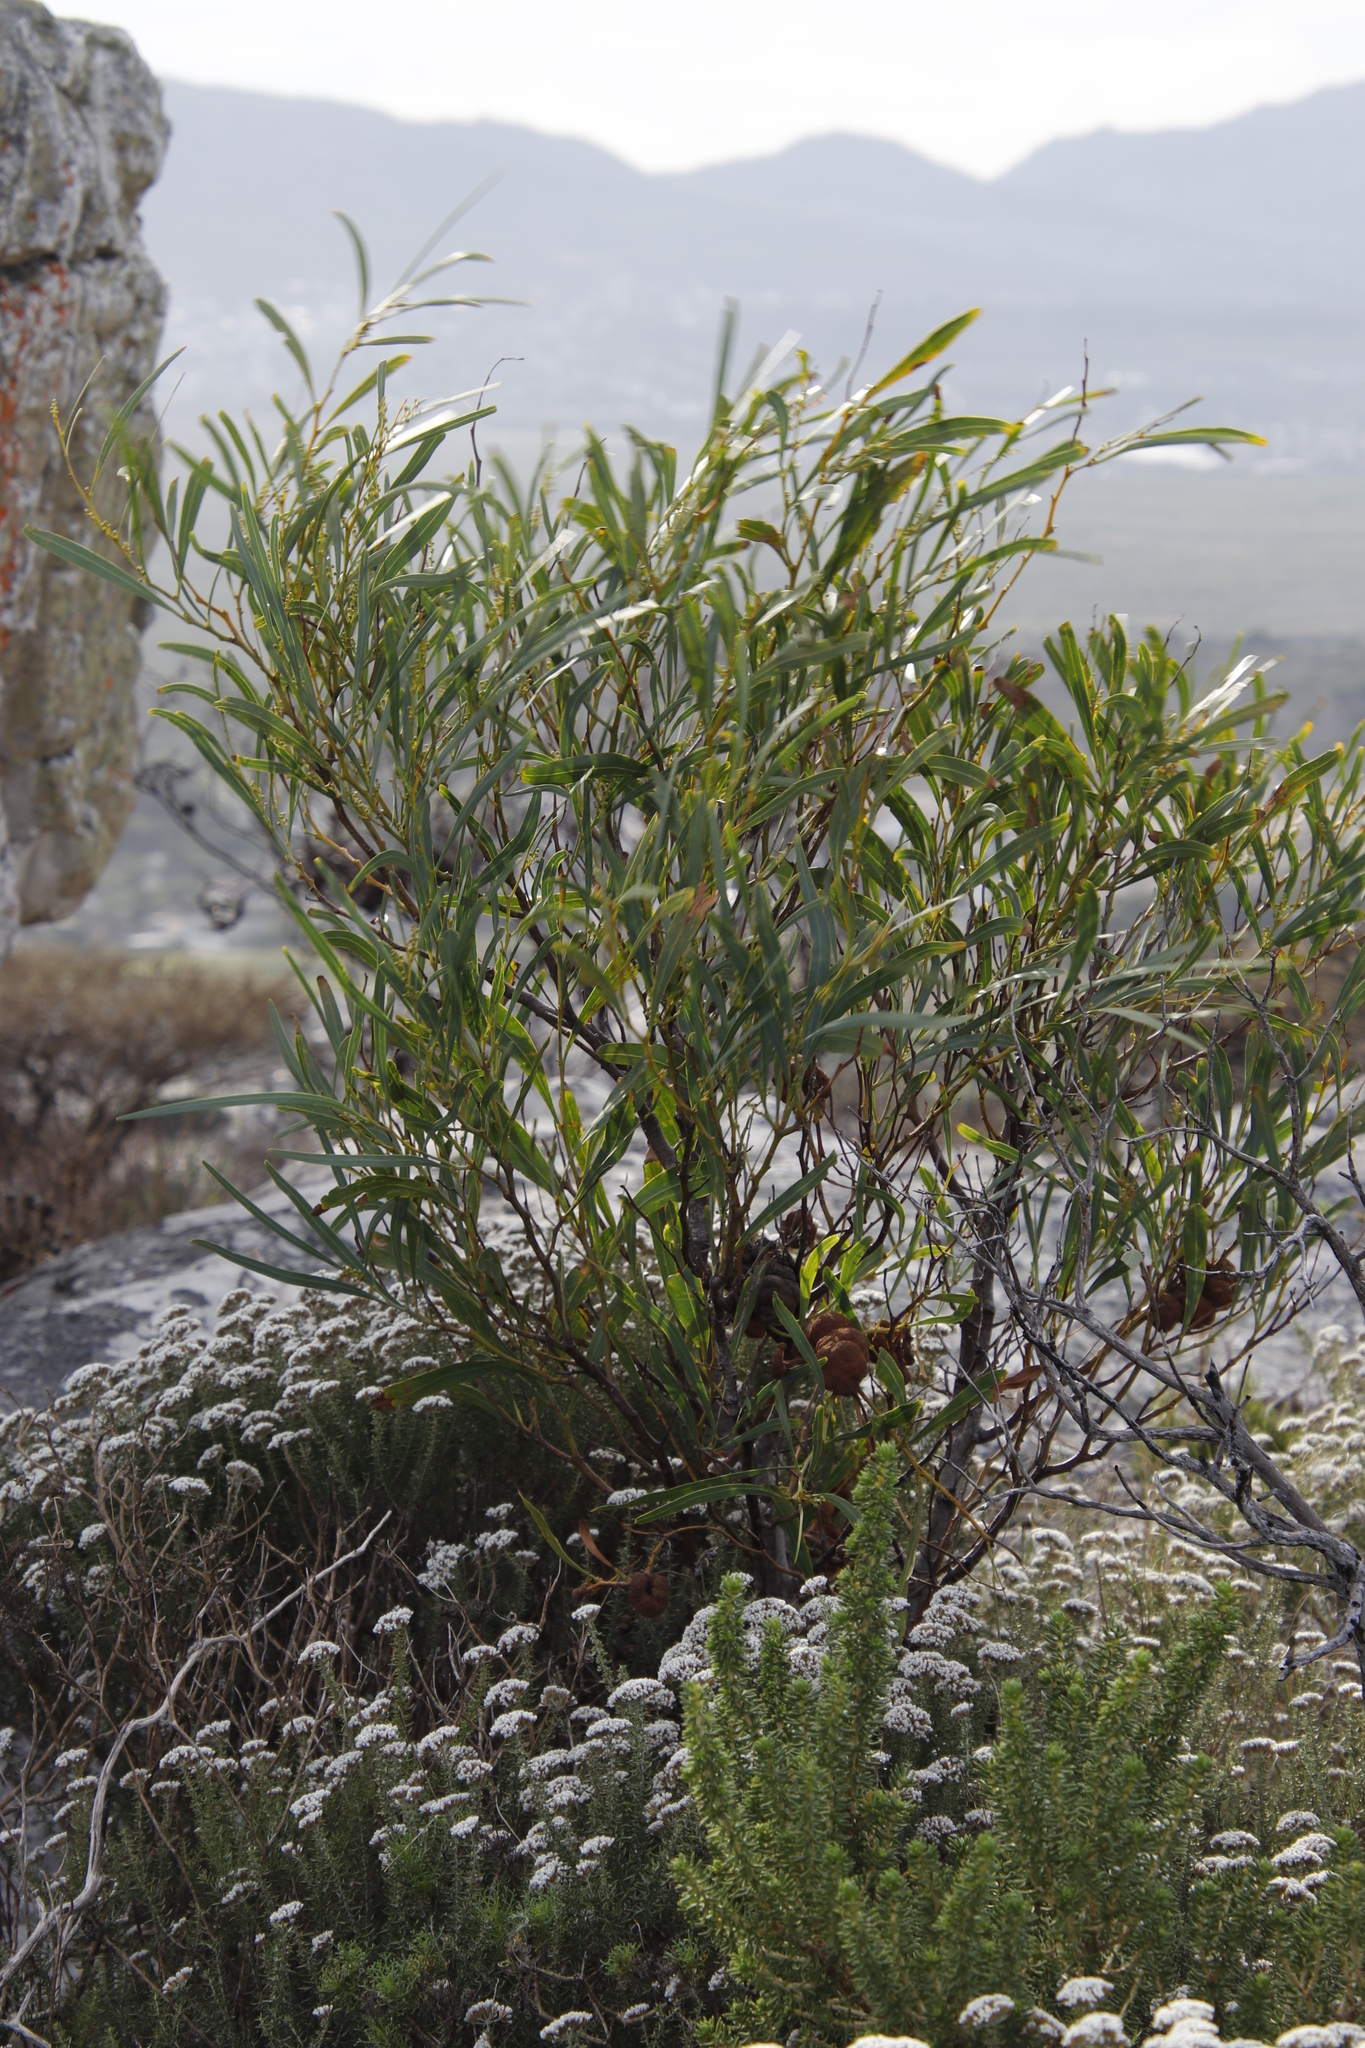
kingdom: Plantae
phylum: Tracheophyta
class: Magnoliopsida
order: Fabales
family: Fabaceae
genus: Acacia
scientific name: Acacia saligna
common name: Orange wattle
